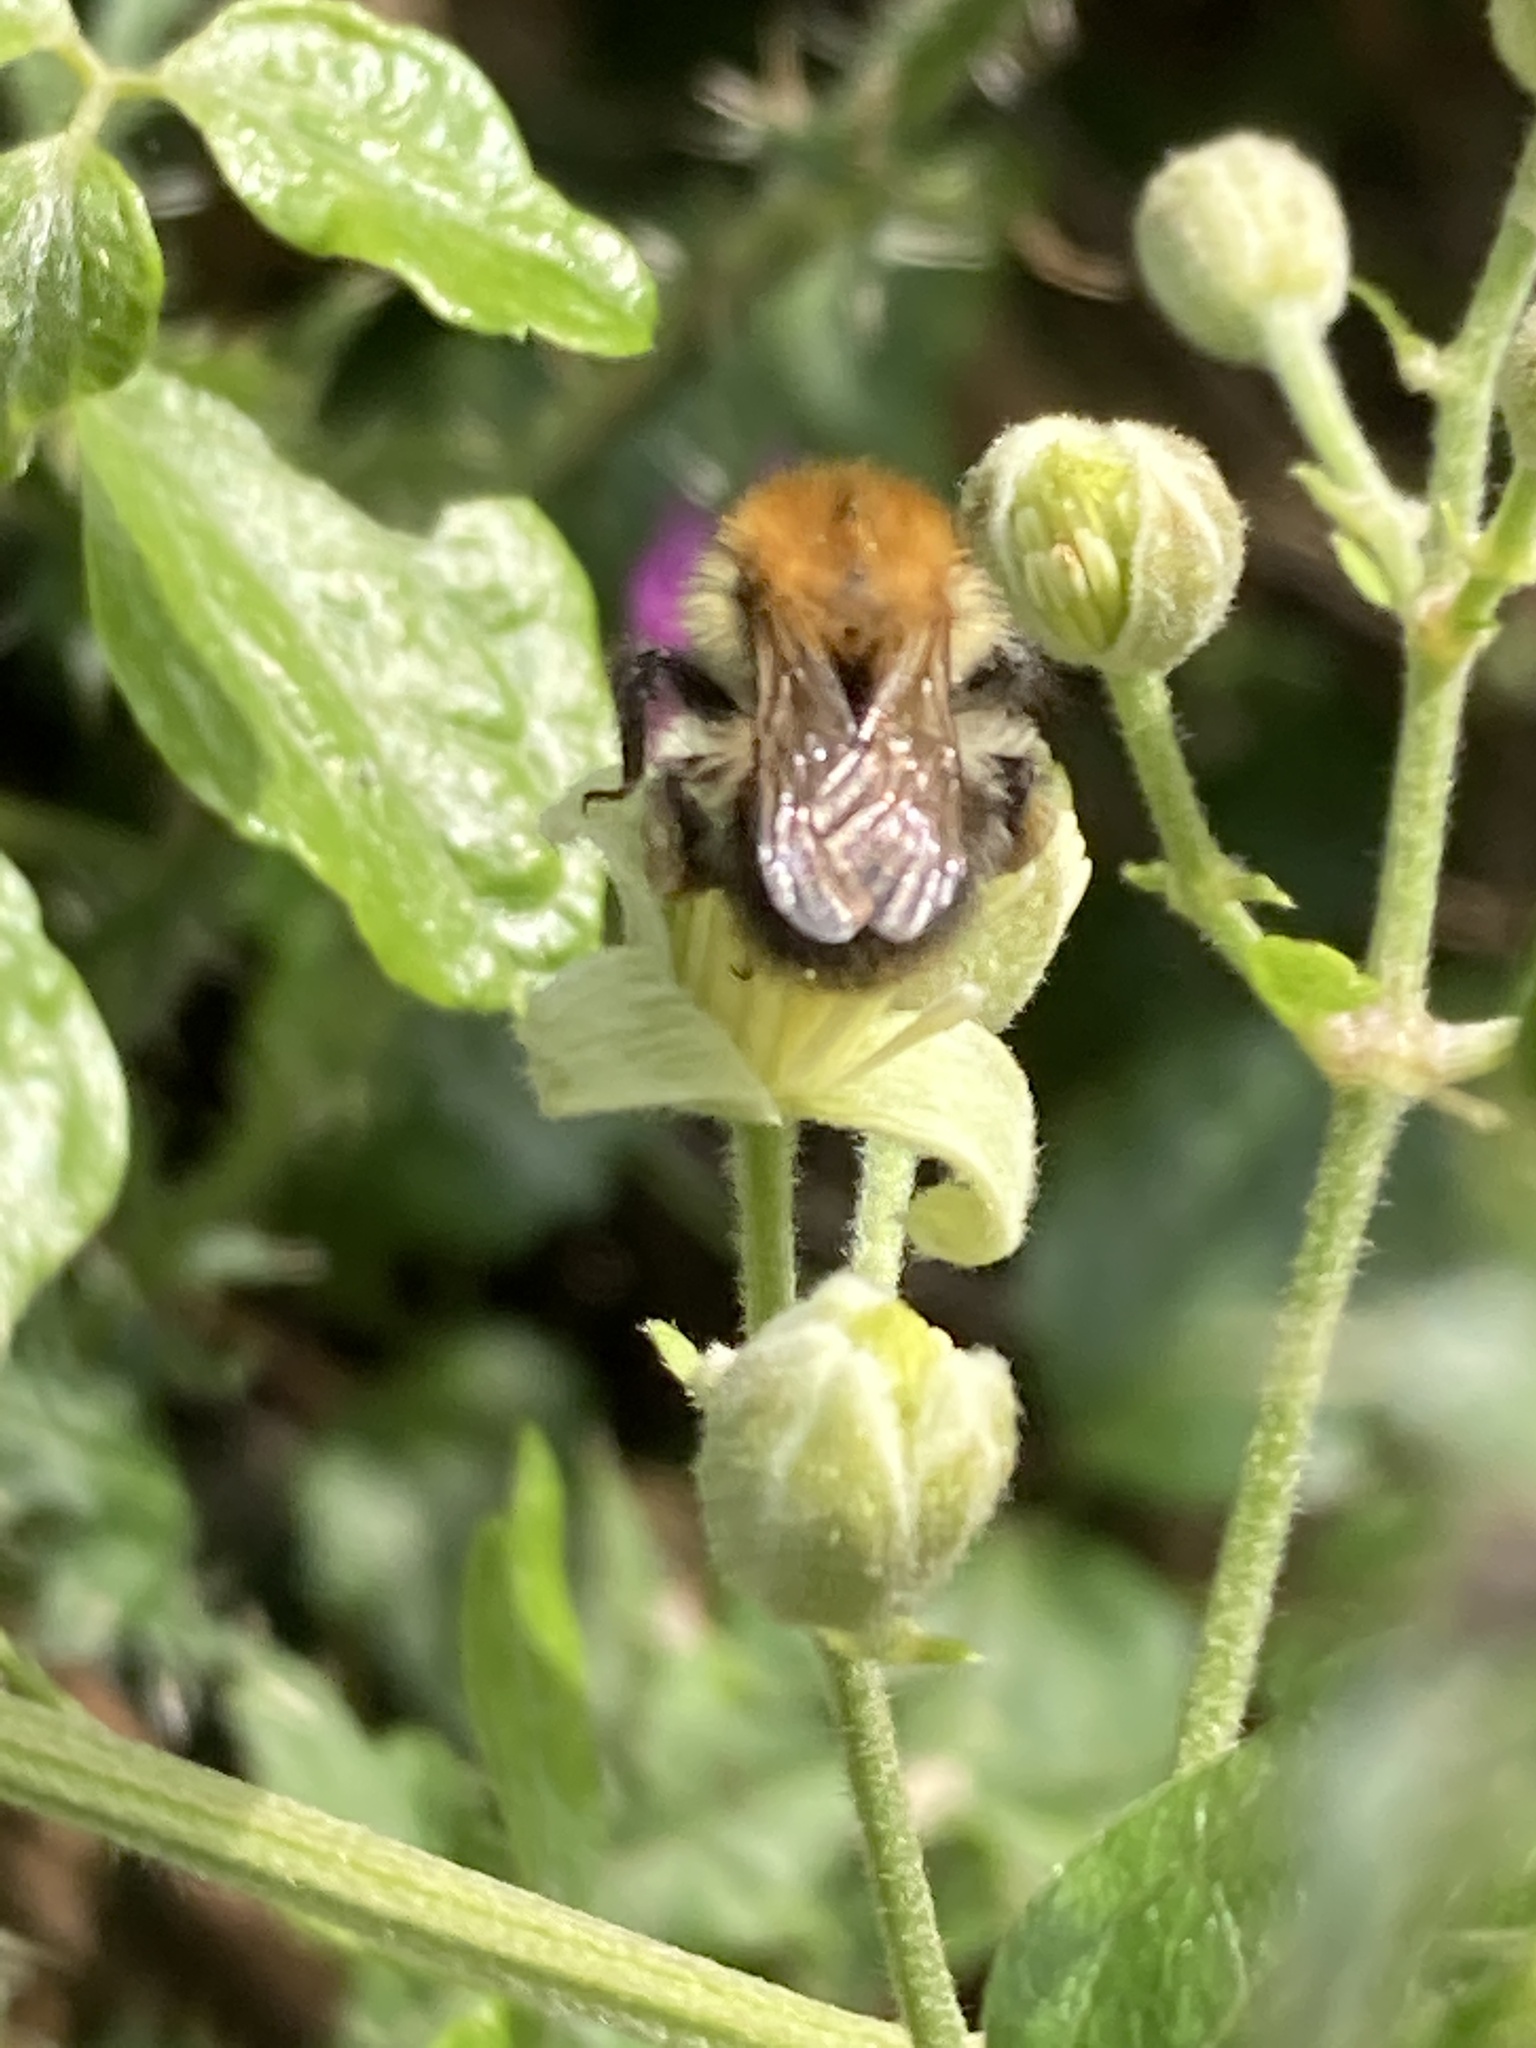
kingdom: Animalia
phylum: Arthropoda
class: Insecta
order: Hymenoptera
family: Apidae
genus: Bombus
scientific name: Bombus pascuorum
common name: Common carder bee
